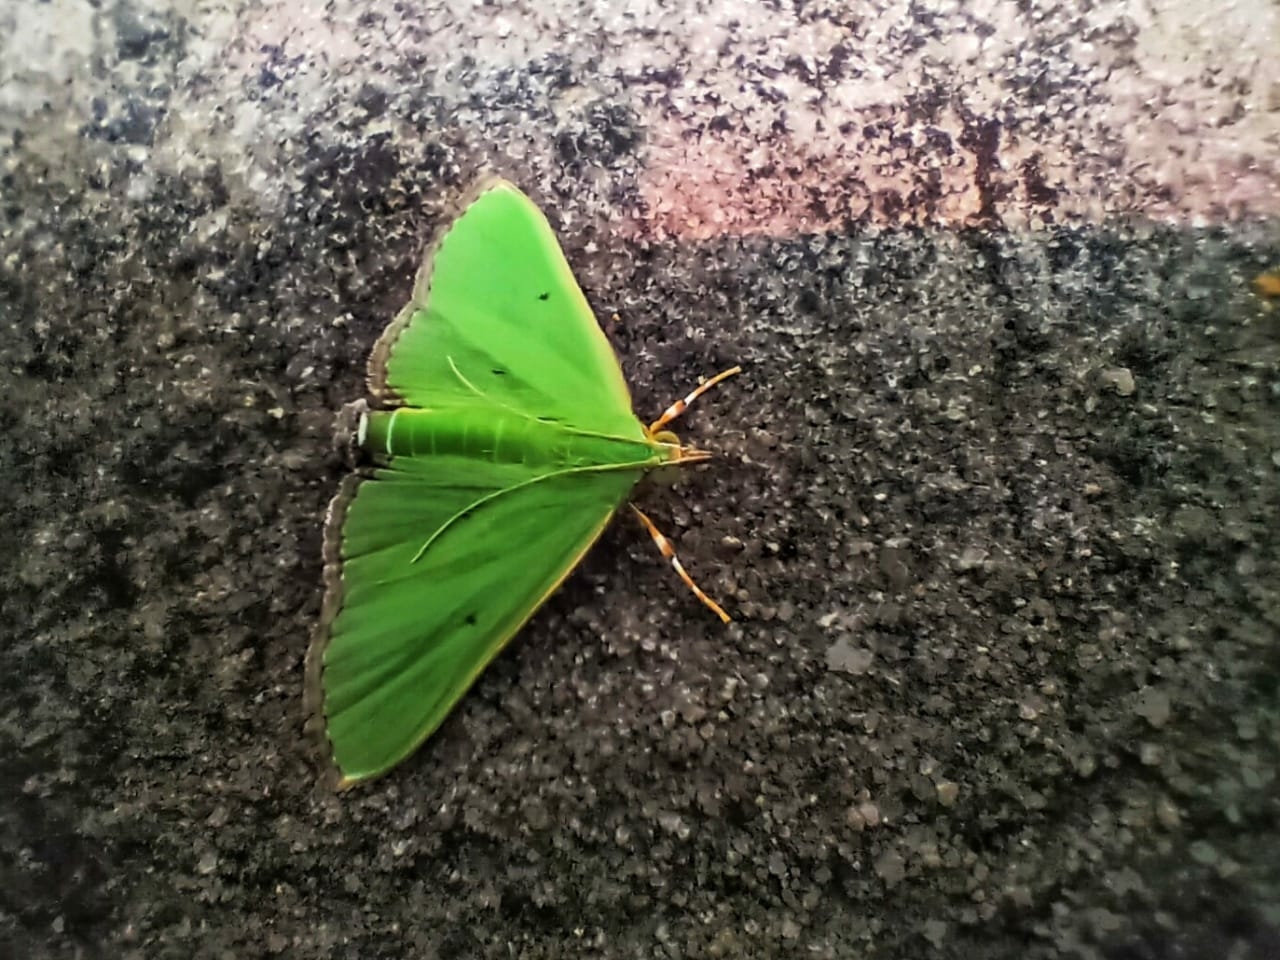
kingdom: Animalia
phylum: Arthropoda
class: Insecta
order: Lepidoptera
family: Crambidae
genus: Parotis
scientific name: Parotis marginata
